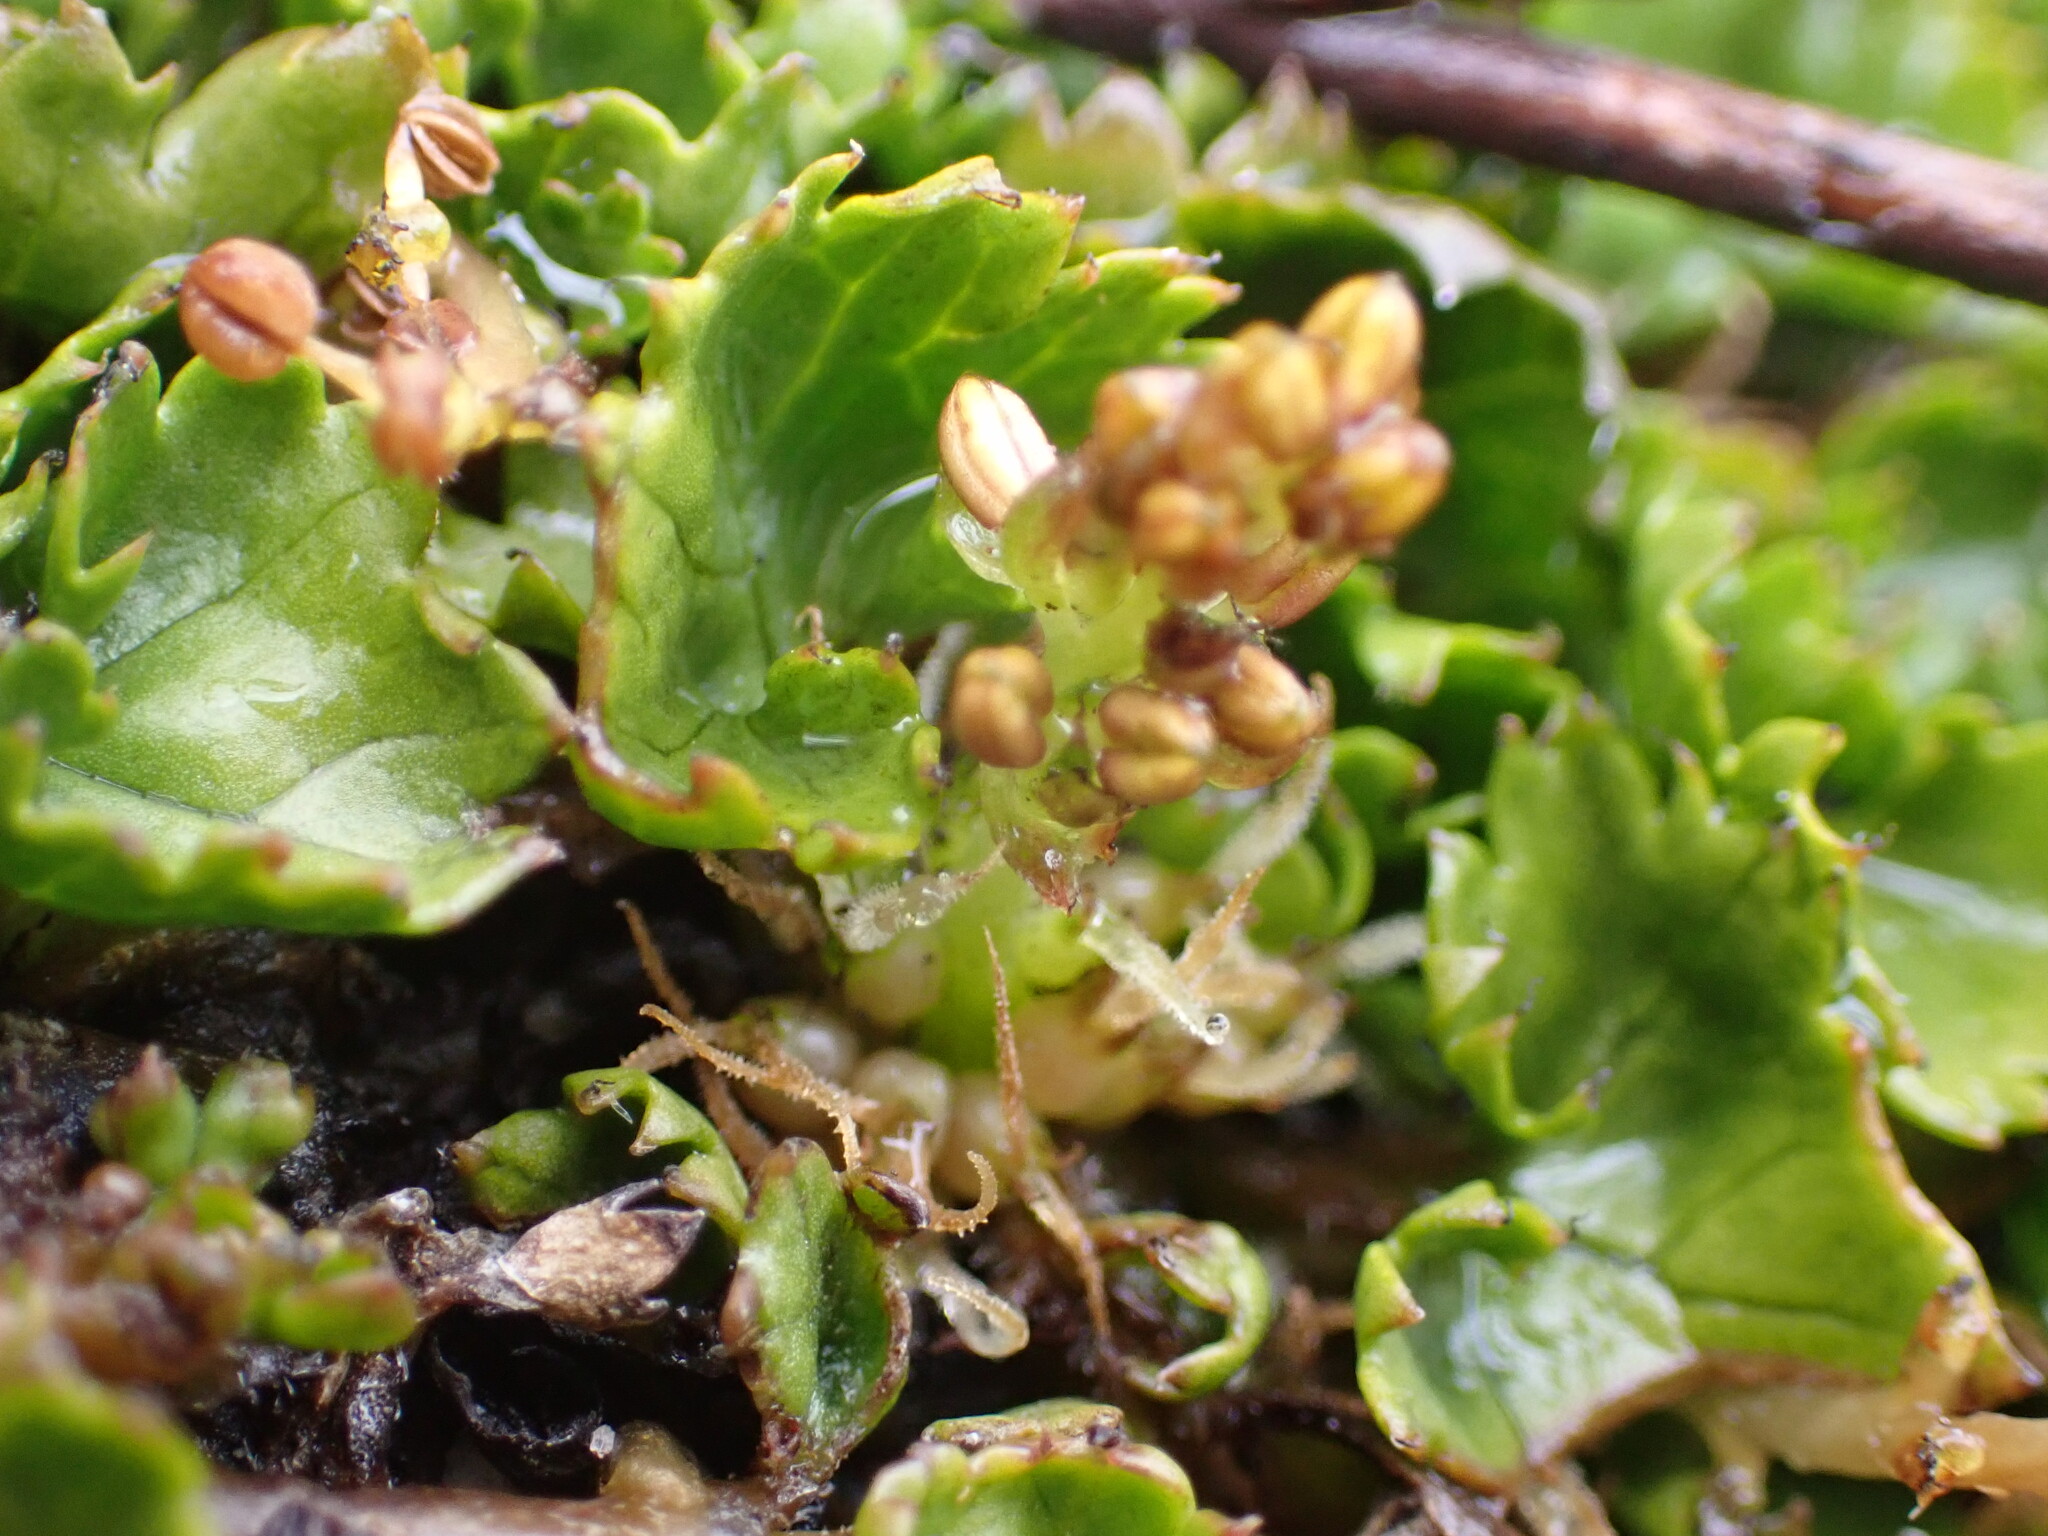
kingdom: Plantae
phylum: Tracheophyta
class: Magnoliopsida
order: Gunnerales
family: Gunneraceae
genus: Gunnera
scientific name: Gunnera monoica
